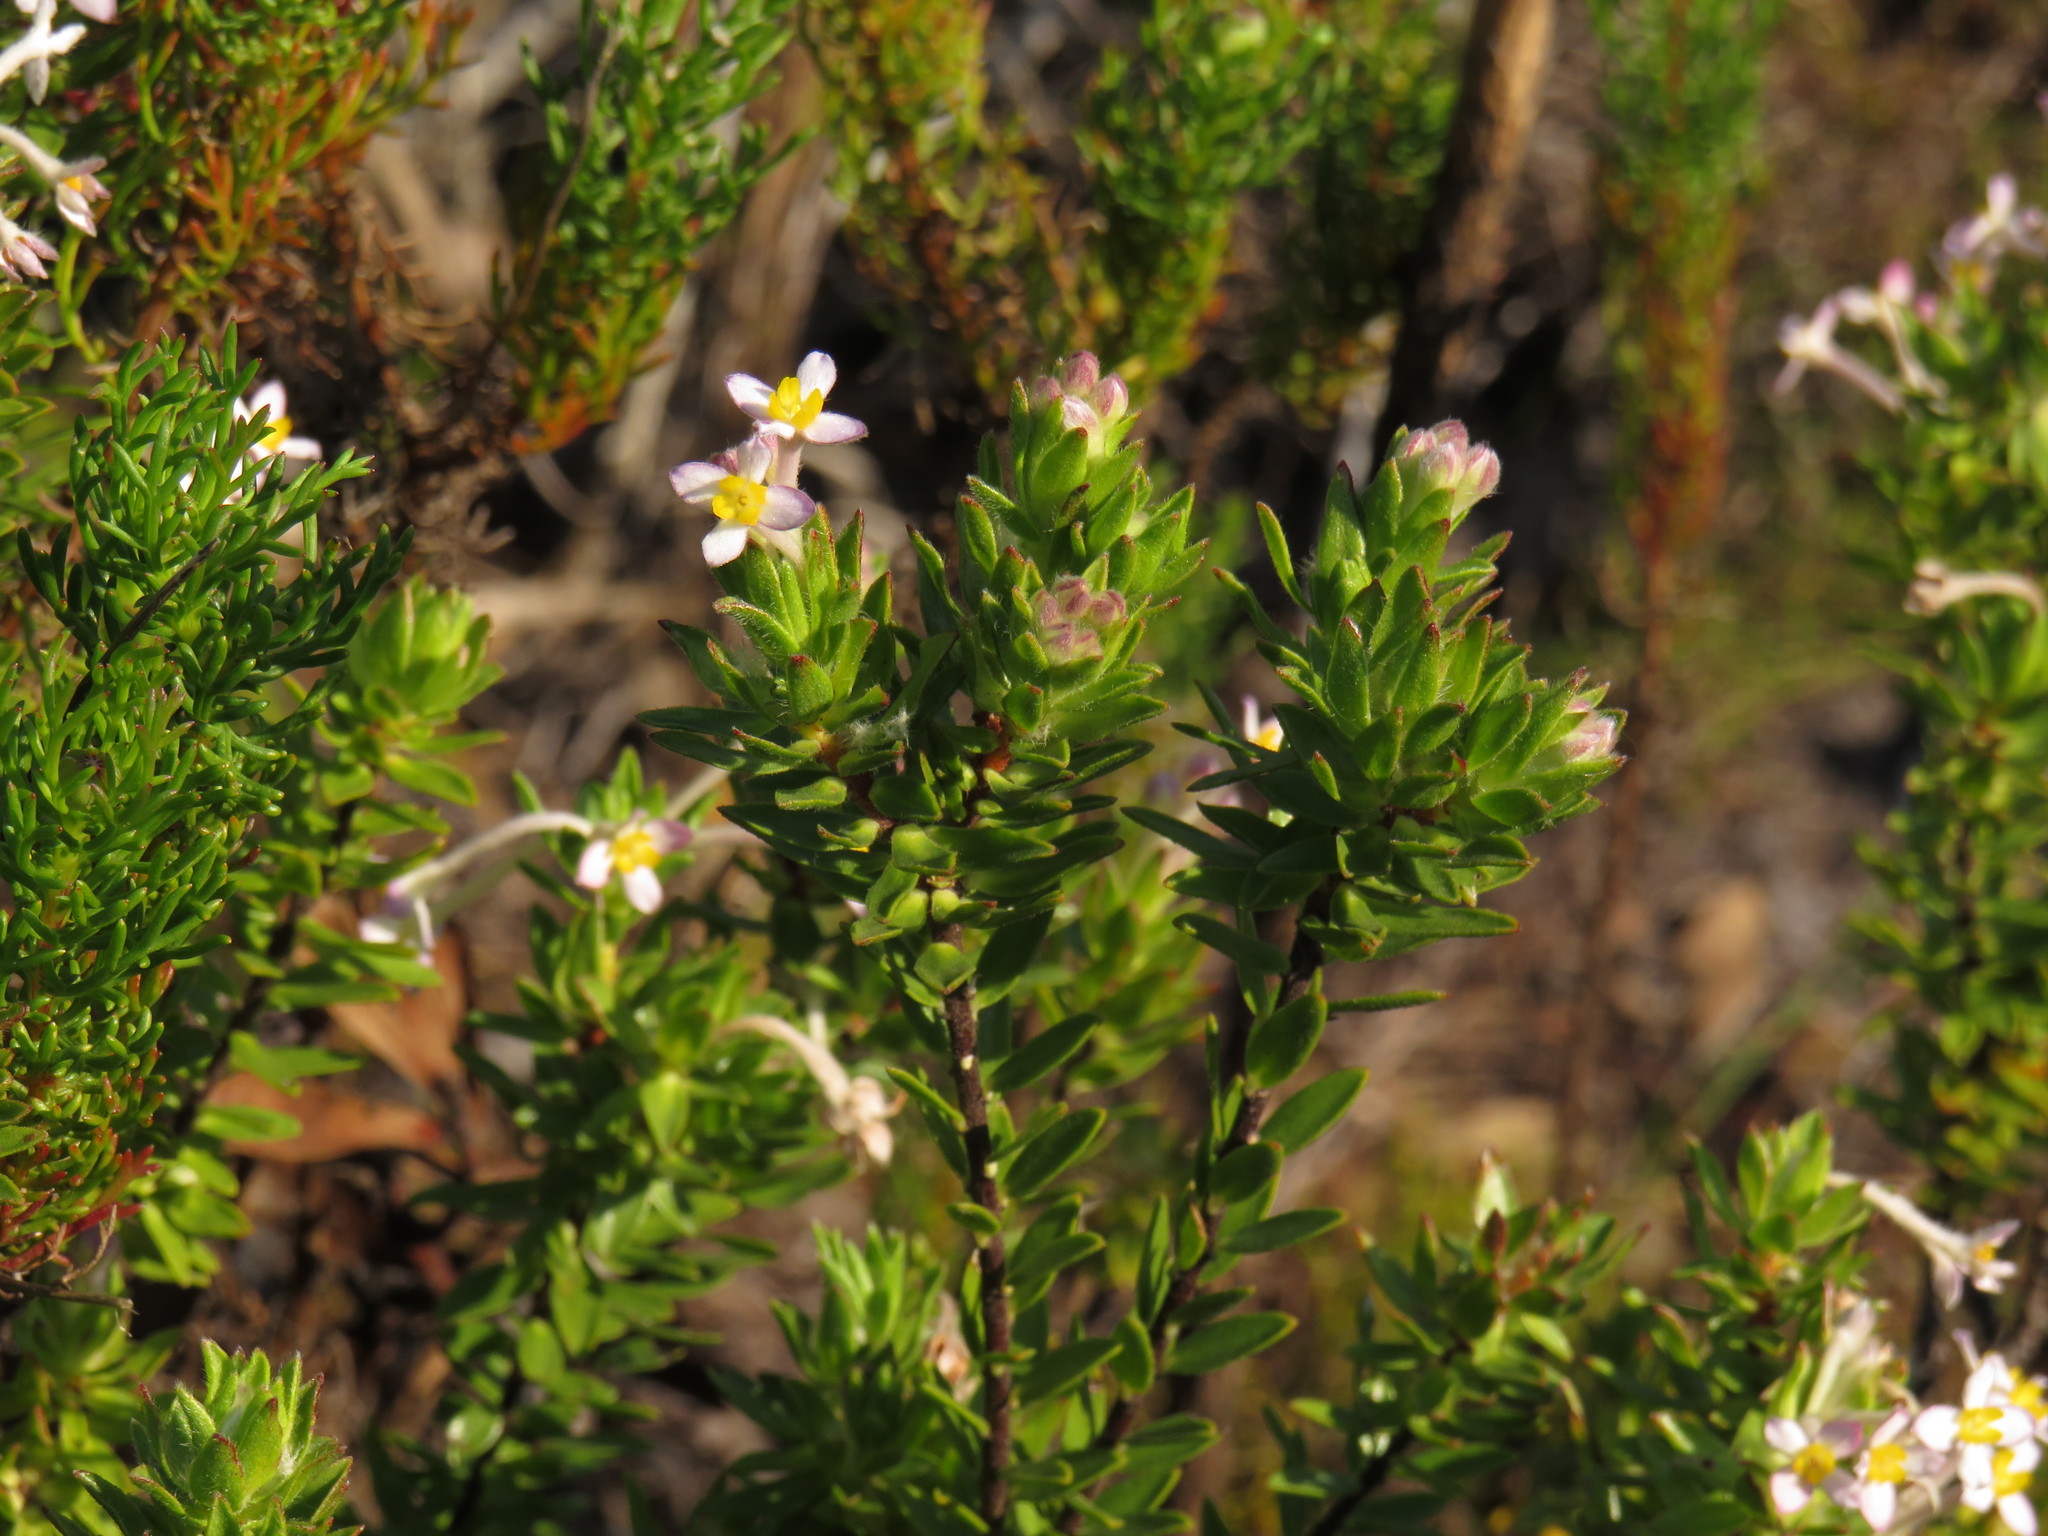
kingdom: Plantae
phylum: Tracheophyta
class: Magnoliopsida
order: Malvales
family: Thymelaeaceae
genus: Gnidia
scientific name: Gnidia tomentosa
